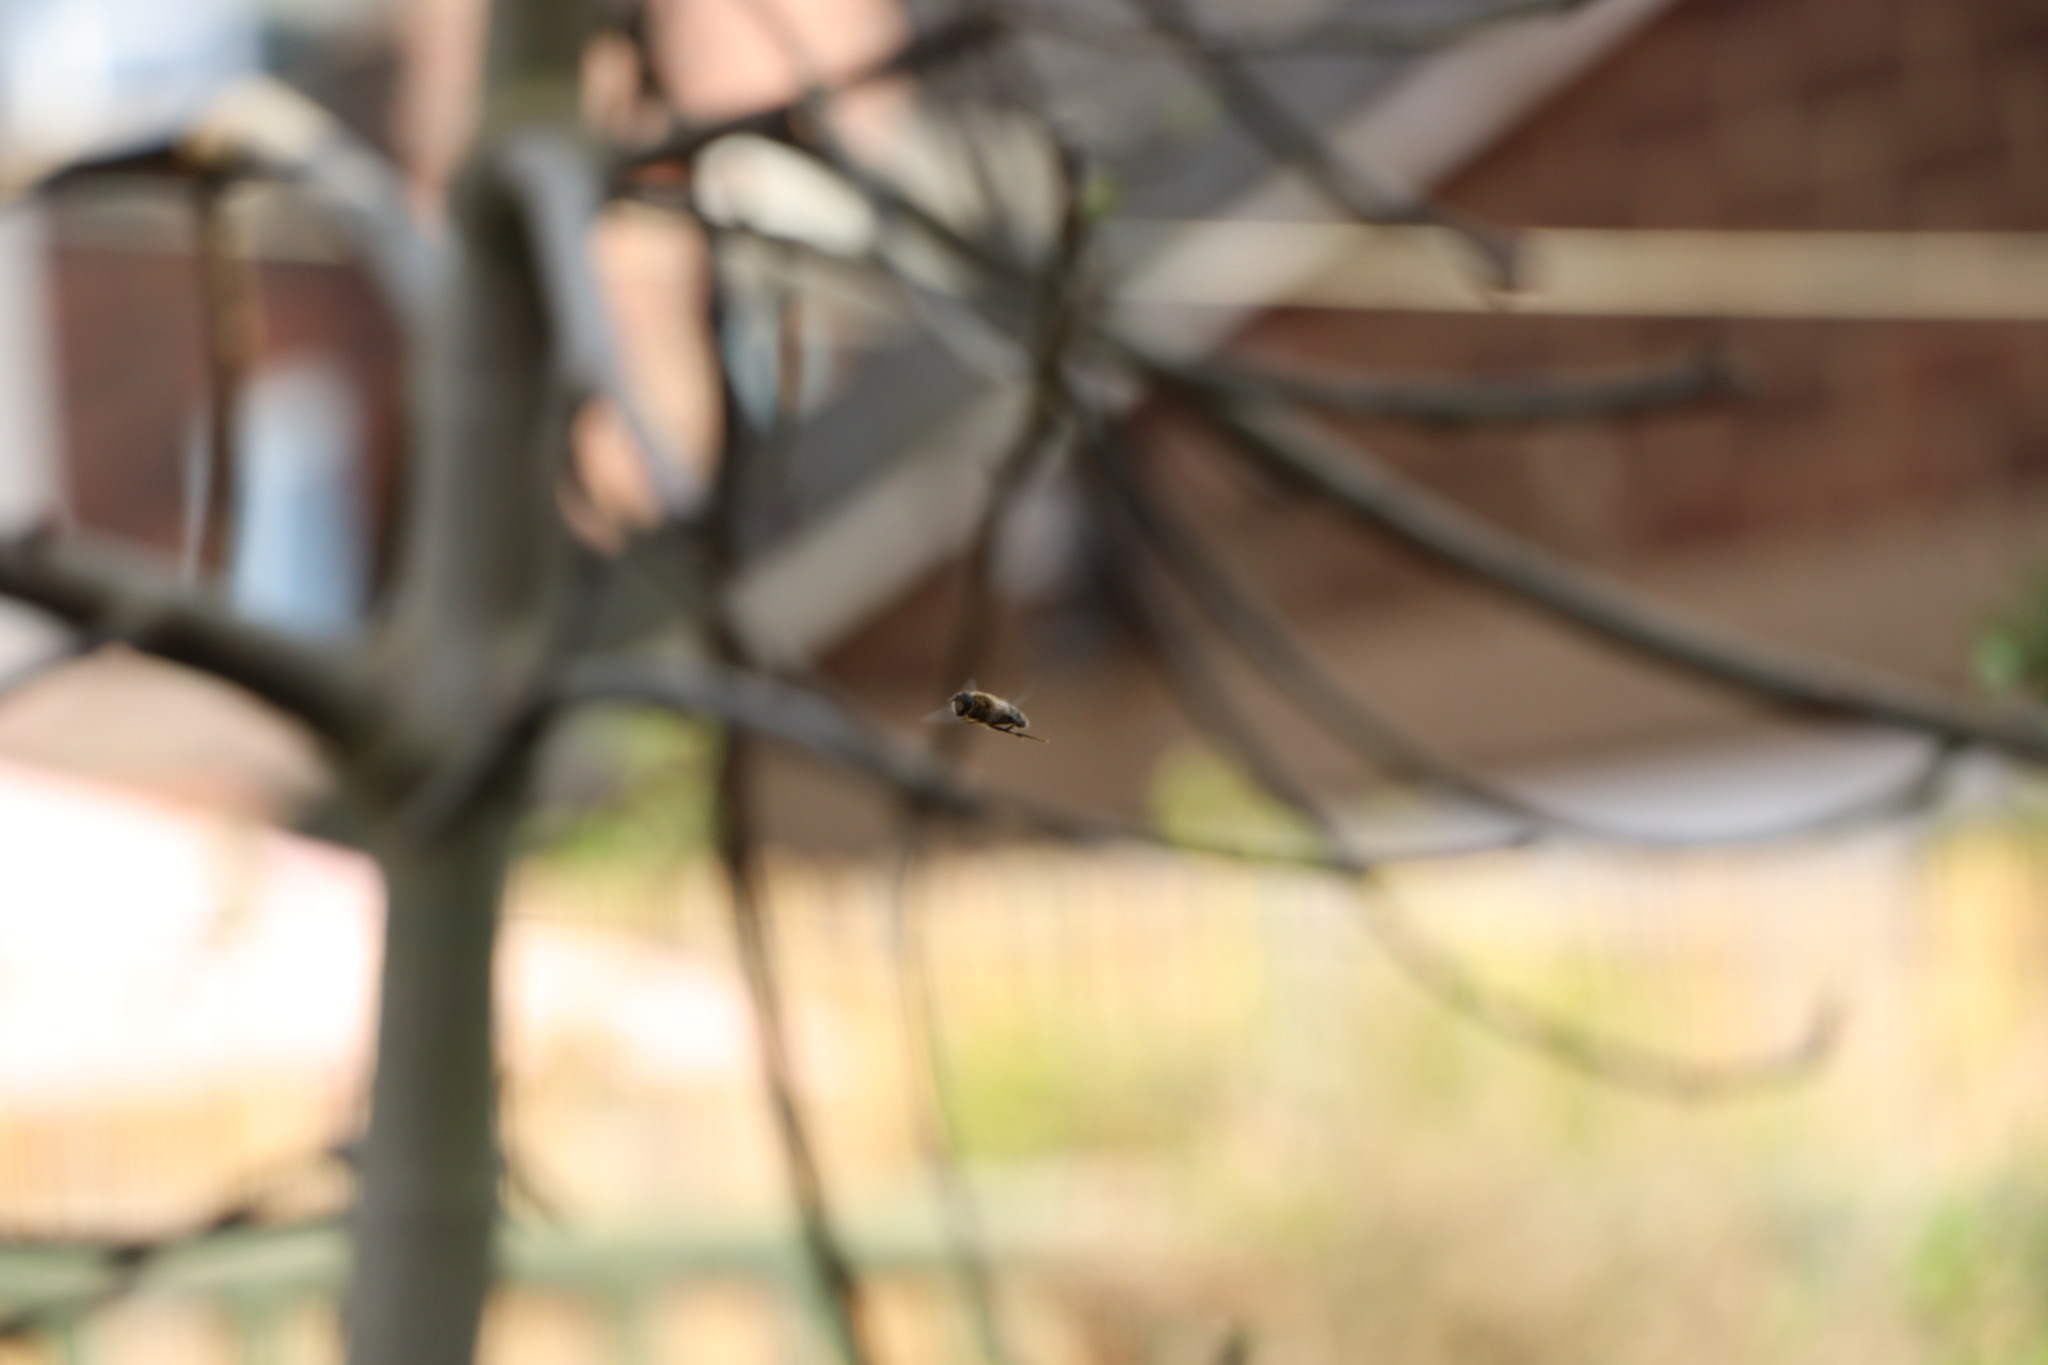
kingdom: Animalia
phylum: Arthropoda
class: Insecta
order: Diptera
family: Syrphidae
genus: Eristalis
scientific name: Eristalis
